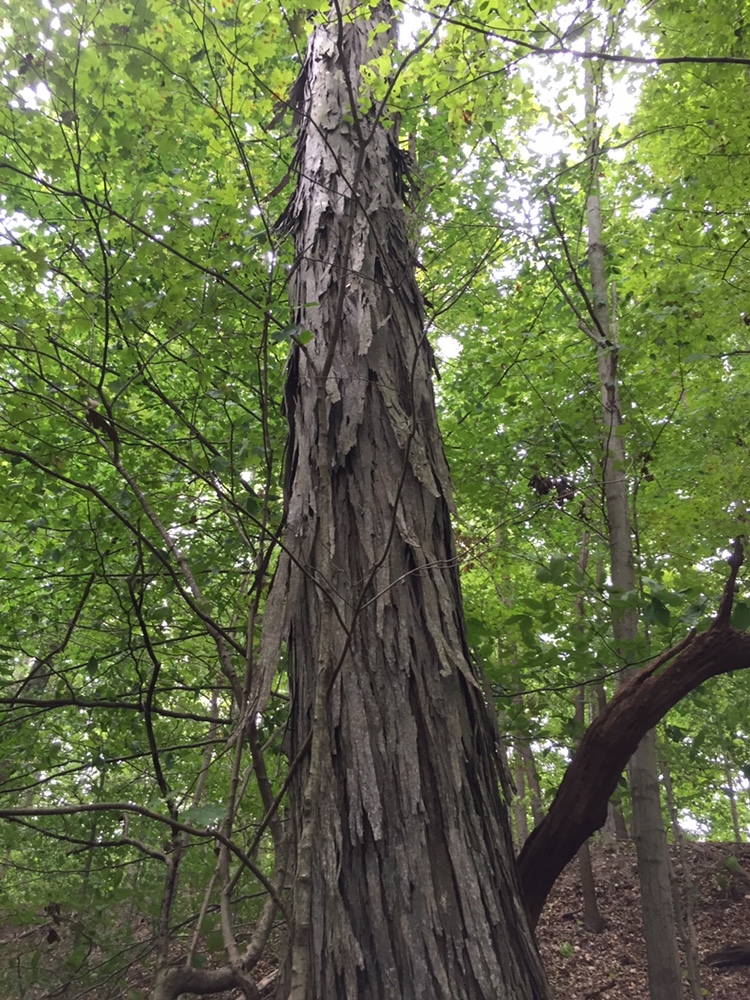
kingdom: Plantae
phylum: Tracheophyta
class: Magnoliopsida
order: Fagales
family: Juglandaceae
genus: Carya
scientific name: Carya ovata
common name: Shagbark hickory
